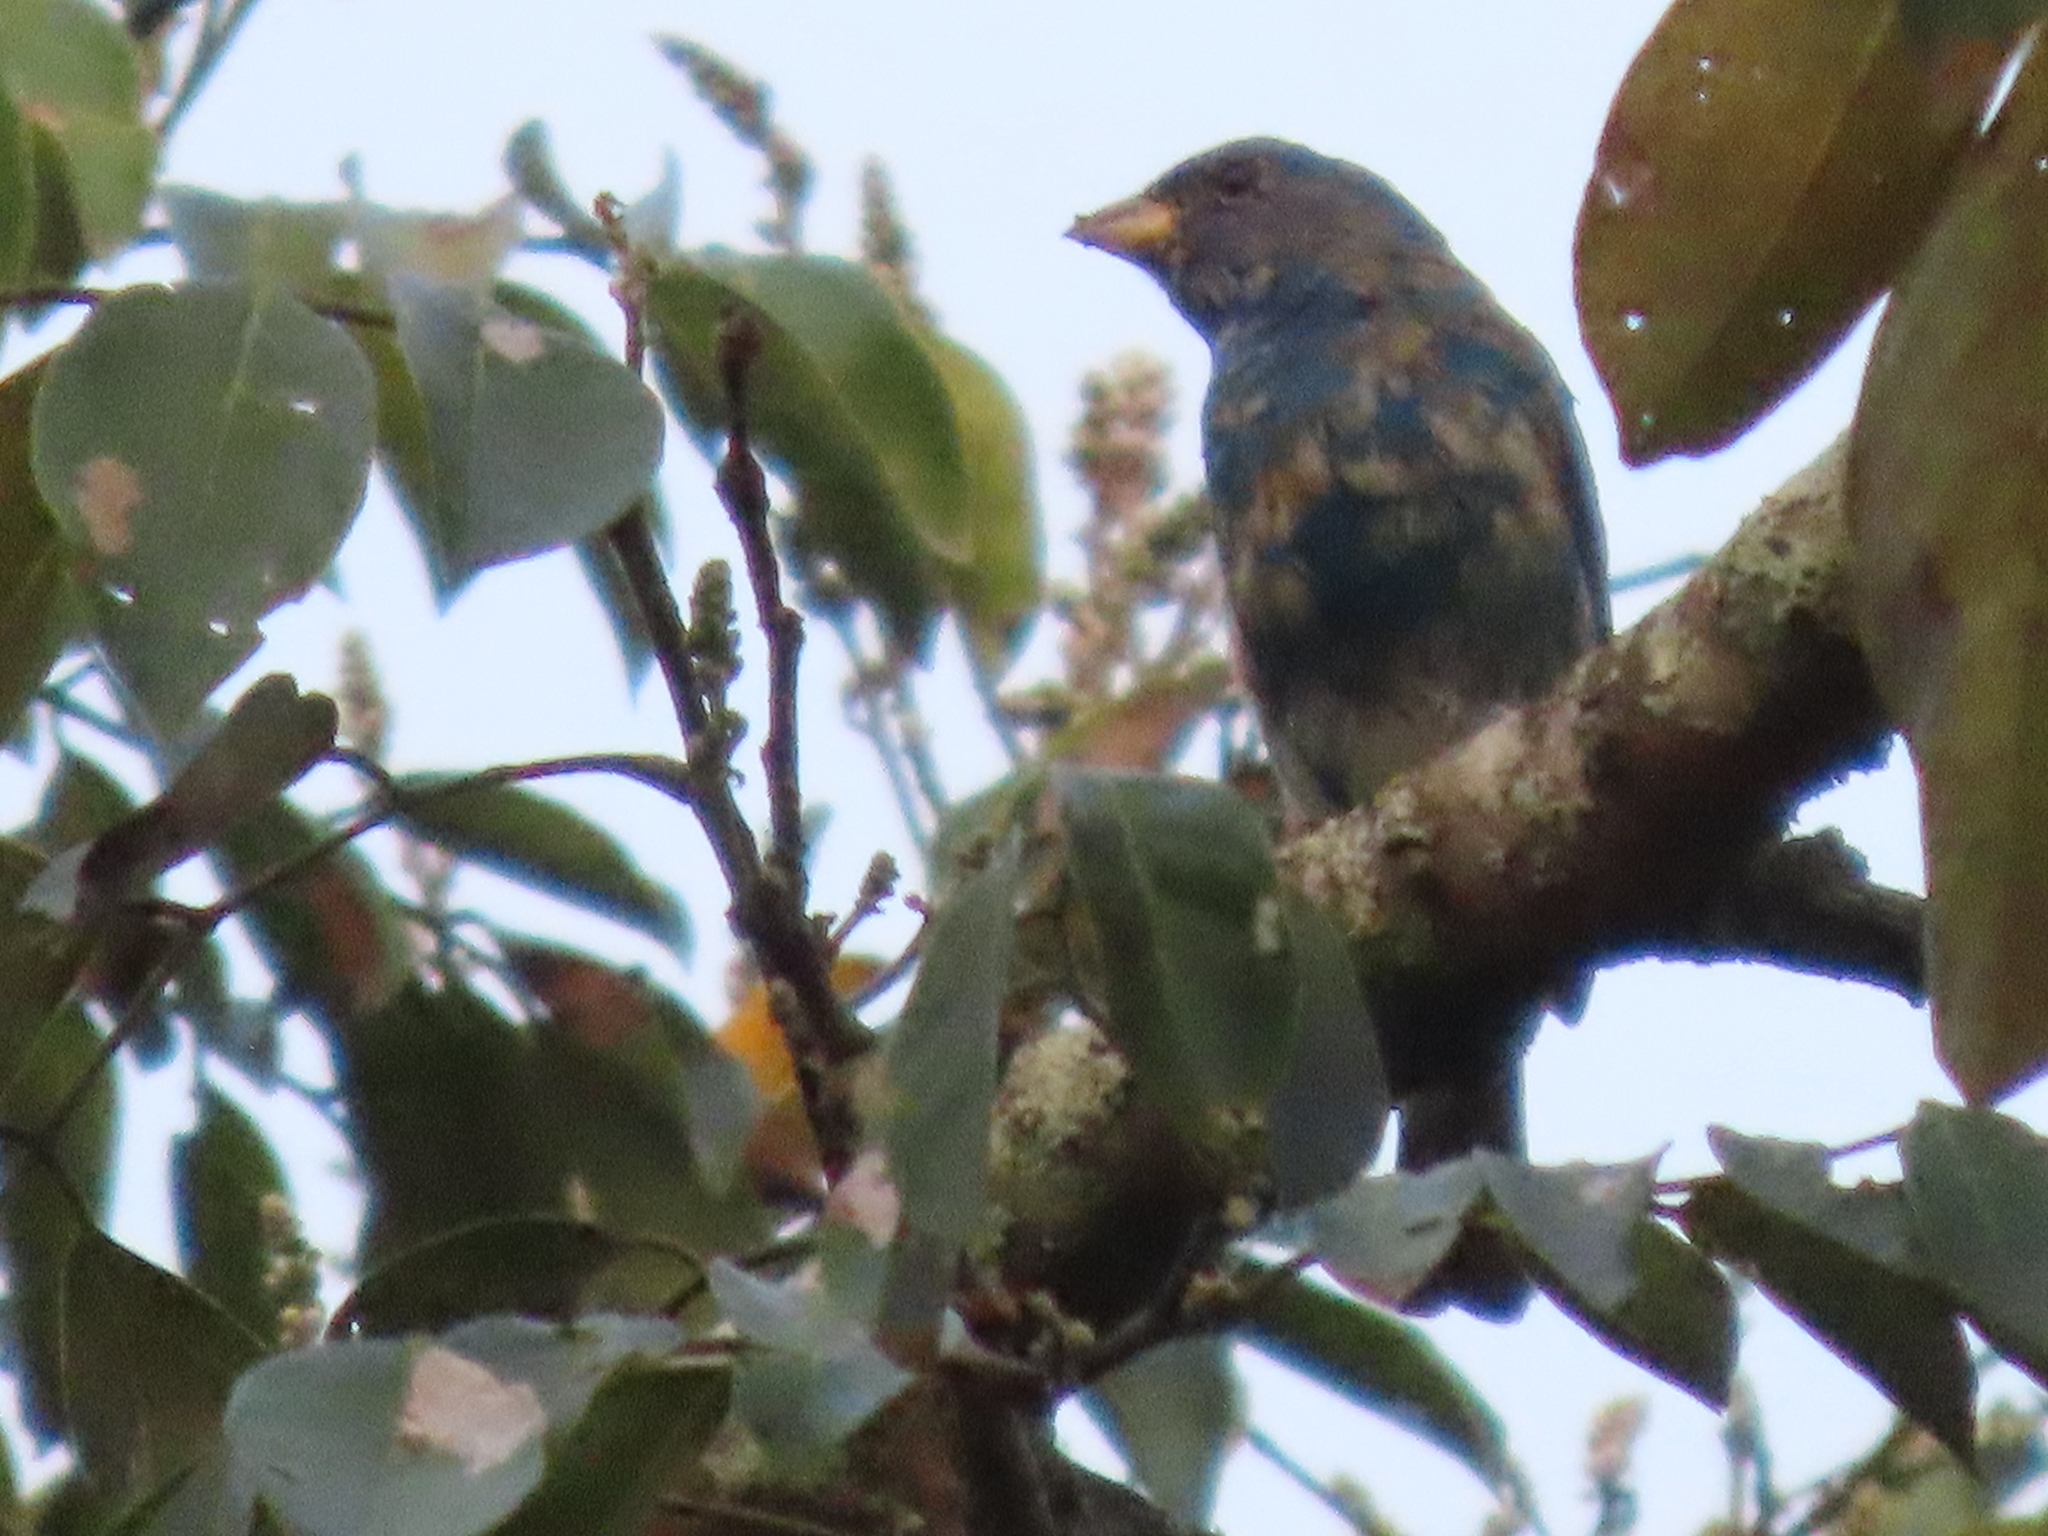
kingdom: Animalia
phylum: Chordata
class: Aves
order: Passeriformes
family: Cardinalidae
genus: Passerina
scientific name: Passerina cyanea
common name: Indigo bunting
